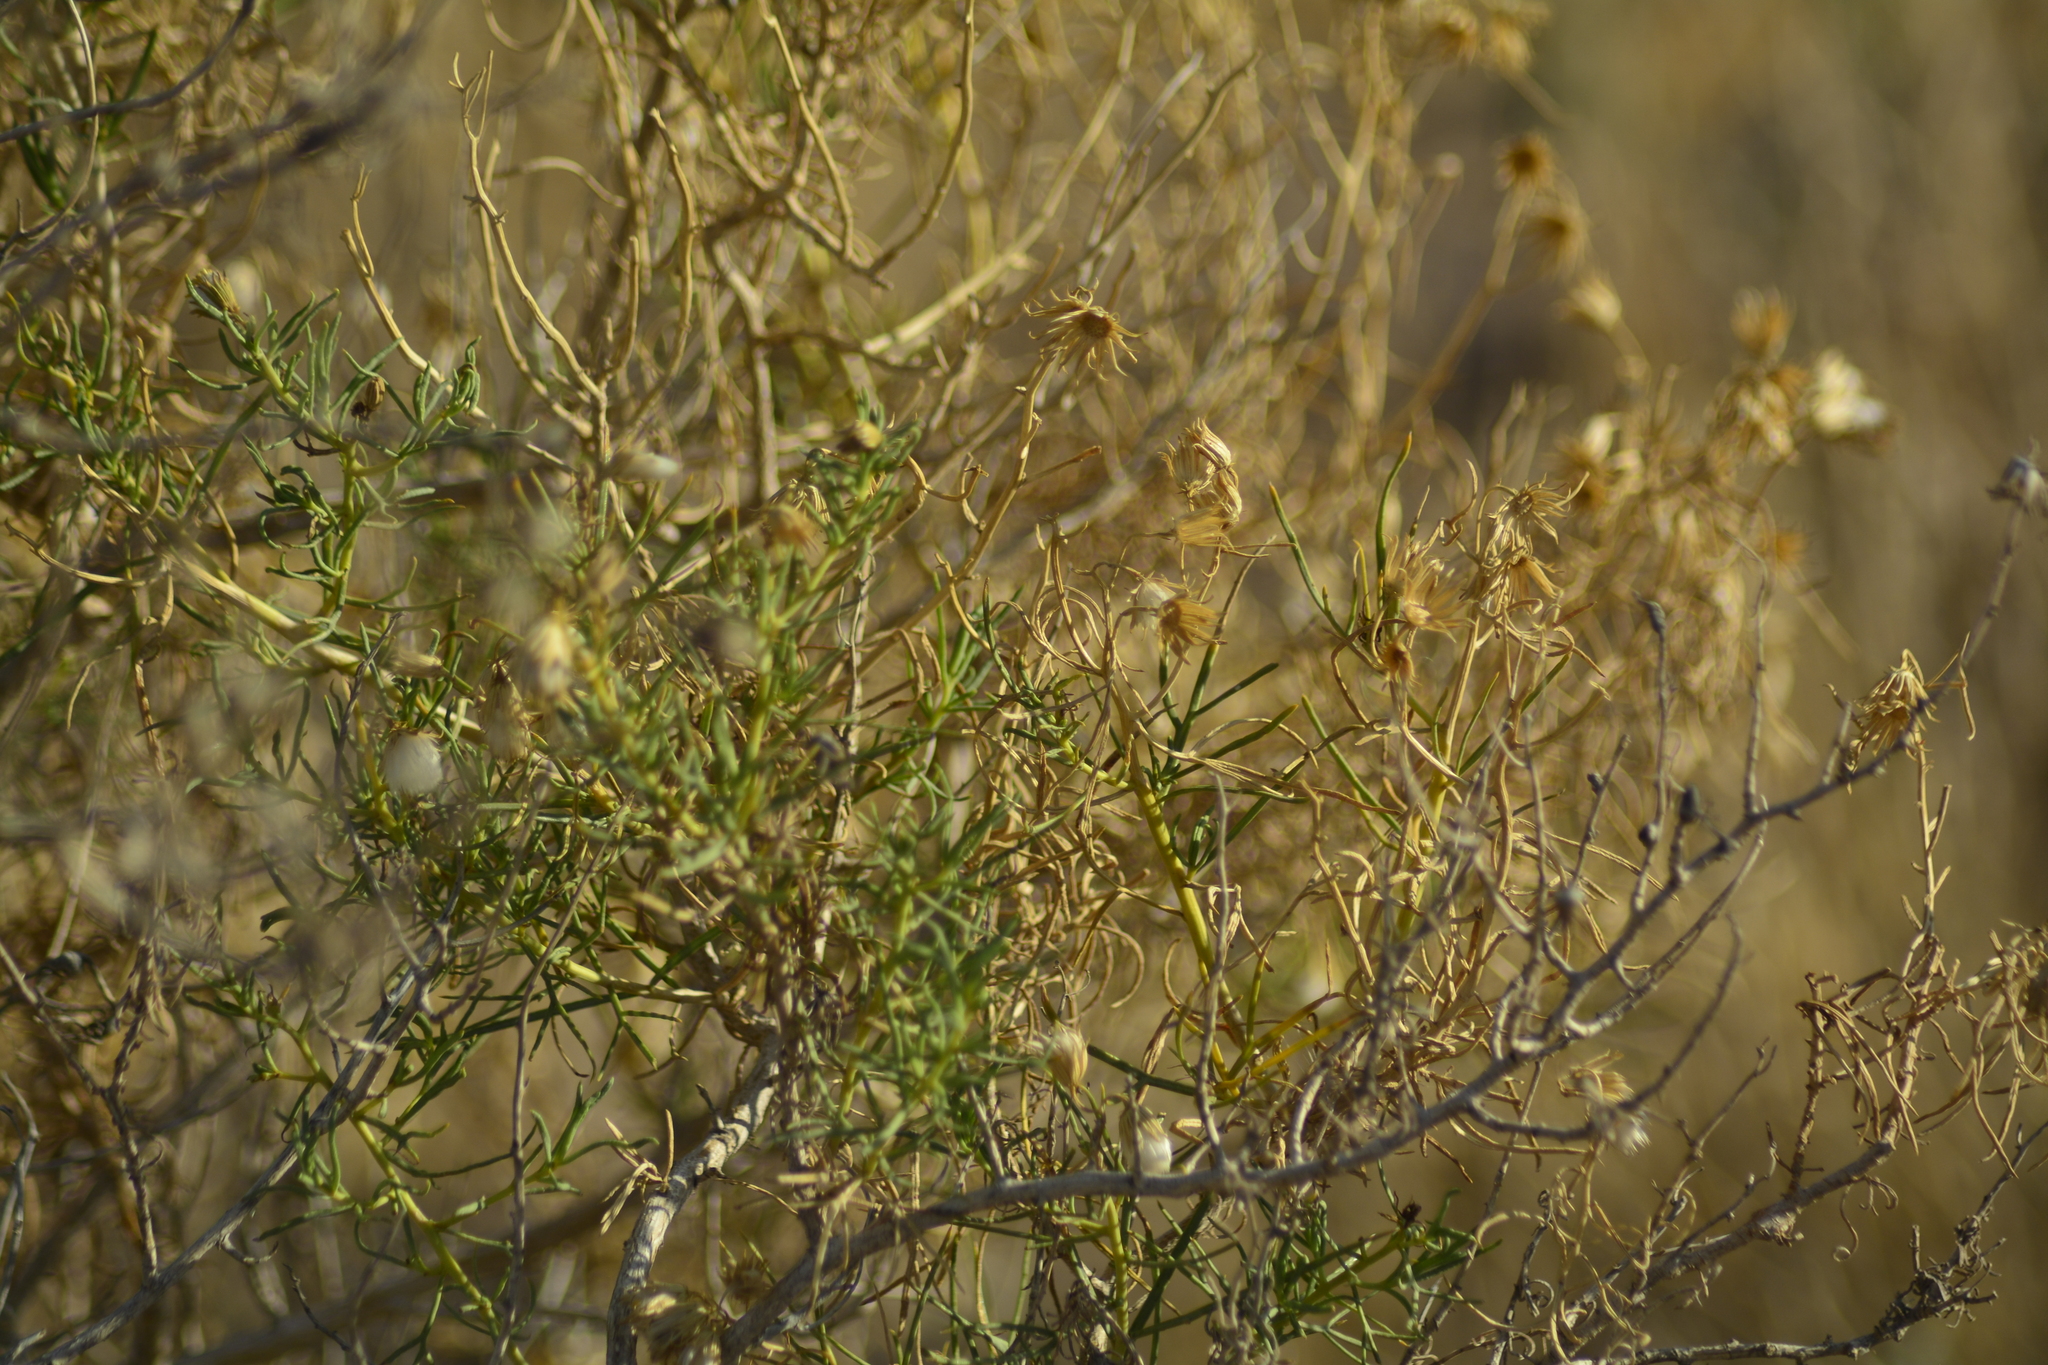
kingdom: Plantae
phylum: Tracheophyta
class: Magnoliopsida
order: Asterales
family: Asteraceae
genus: Senecio
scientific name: Senecio subulatus
